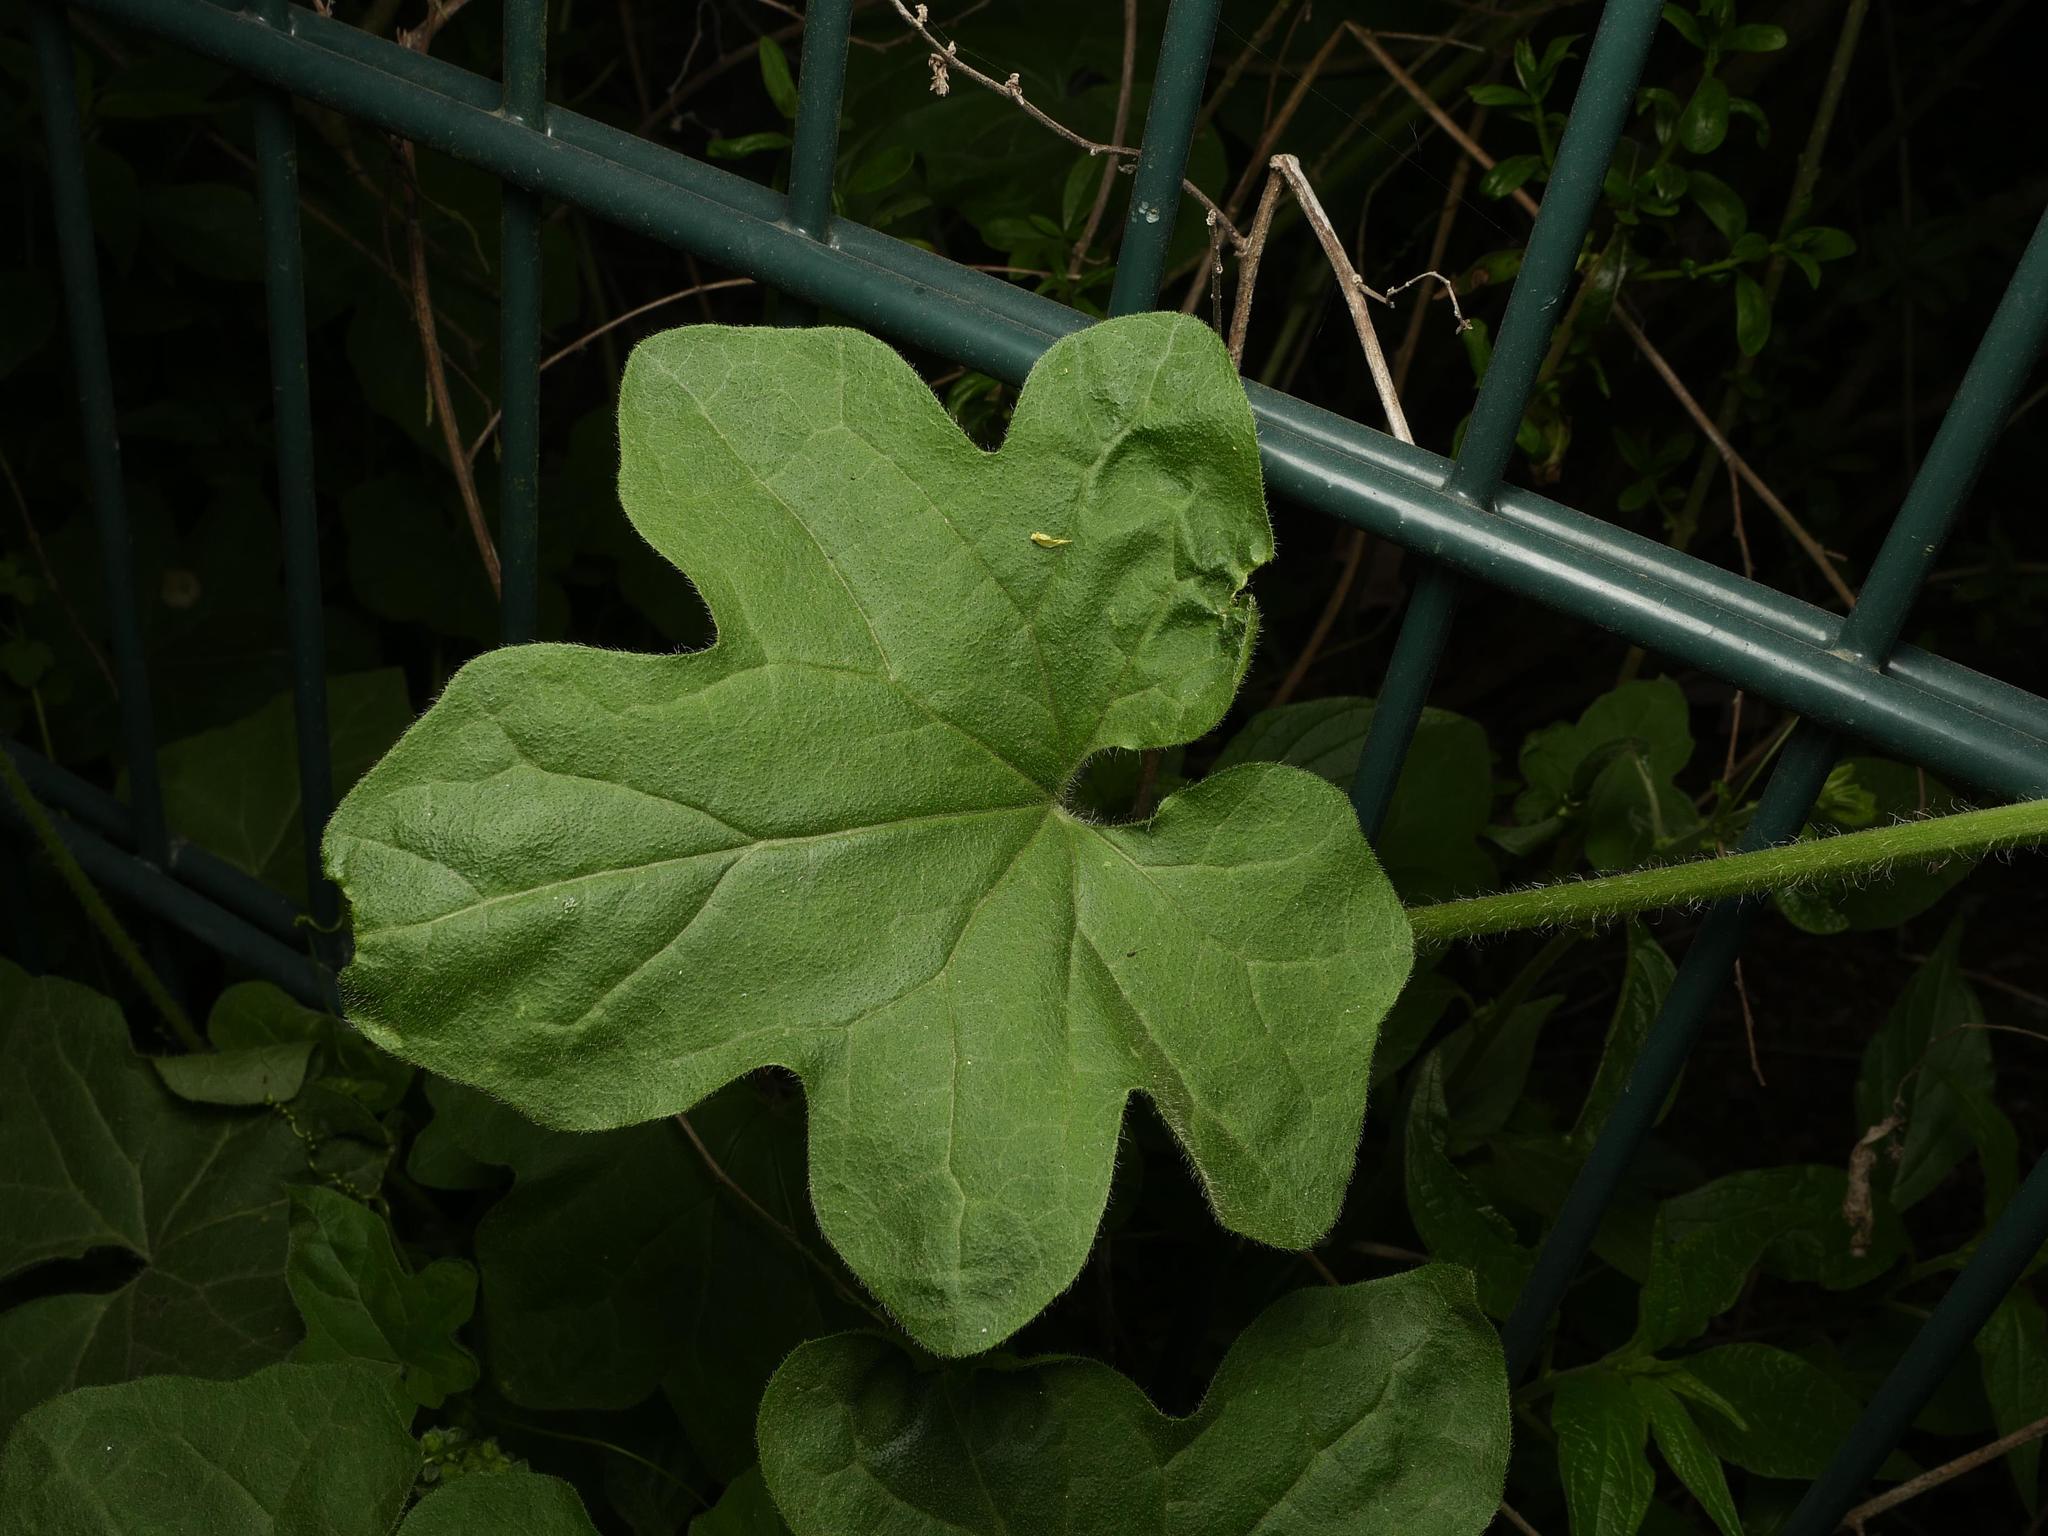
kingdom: Plantae
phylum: Tracheophyta
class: Magnoliopsida
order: Cucurbitales
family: Cucurbitaceae
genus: Bryonia
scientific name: Bryonia cretica
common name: Cretan bryony
